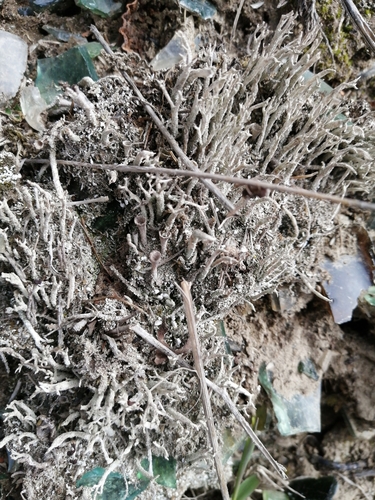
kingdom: Fungi
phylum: Ascomycota
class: Lecanoromycetes
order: Lecanorales
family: Cladoniaceae
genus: Cladonia
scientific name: Cladonia
